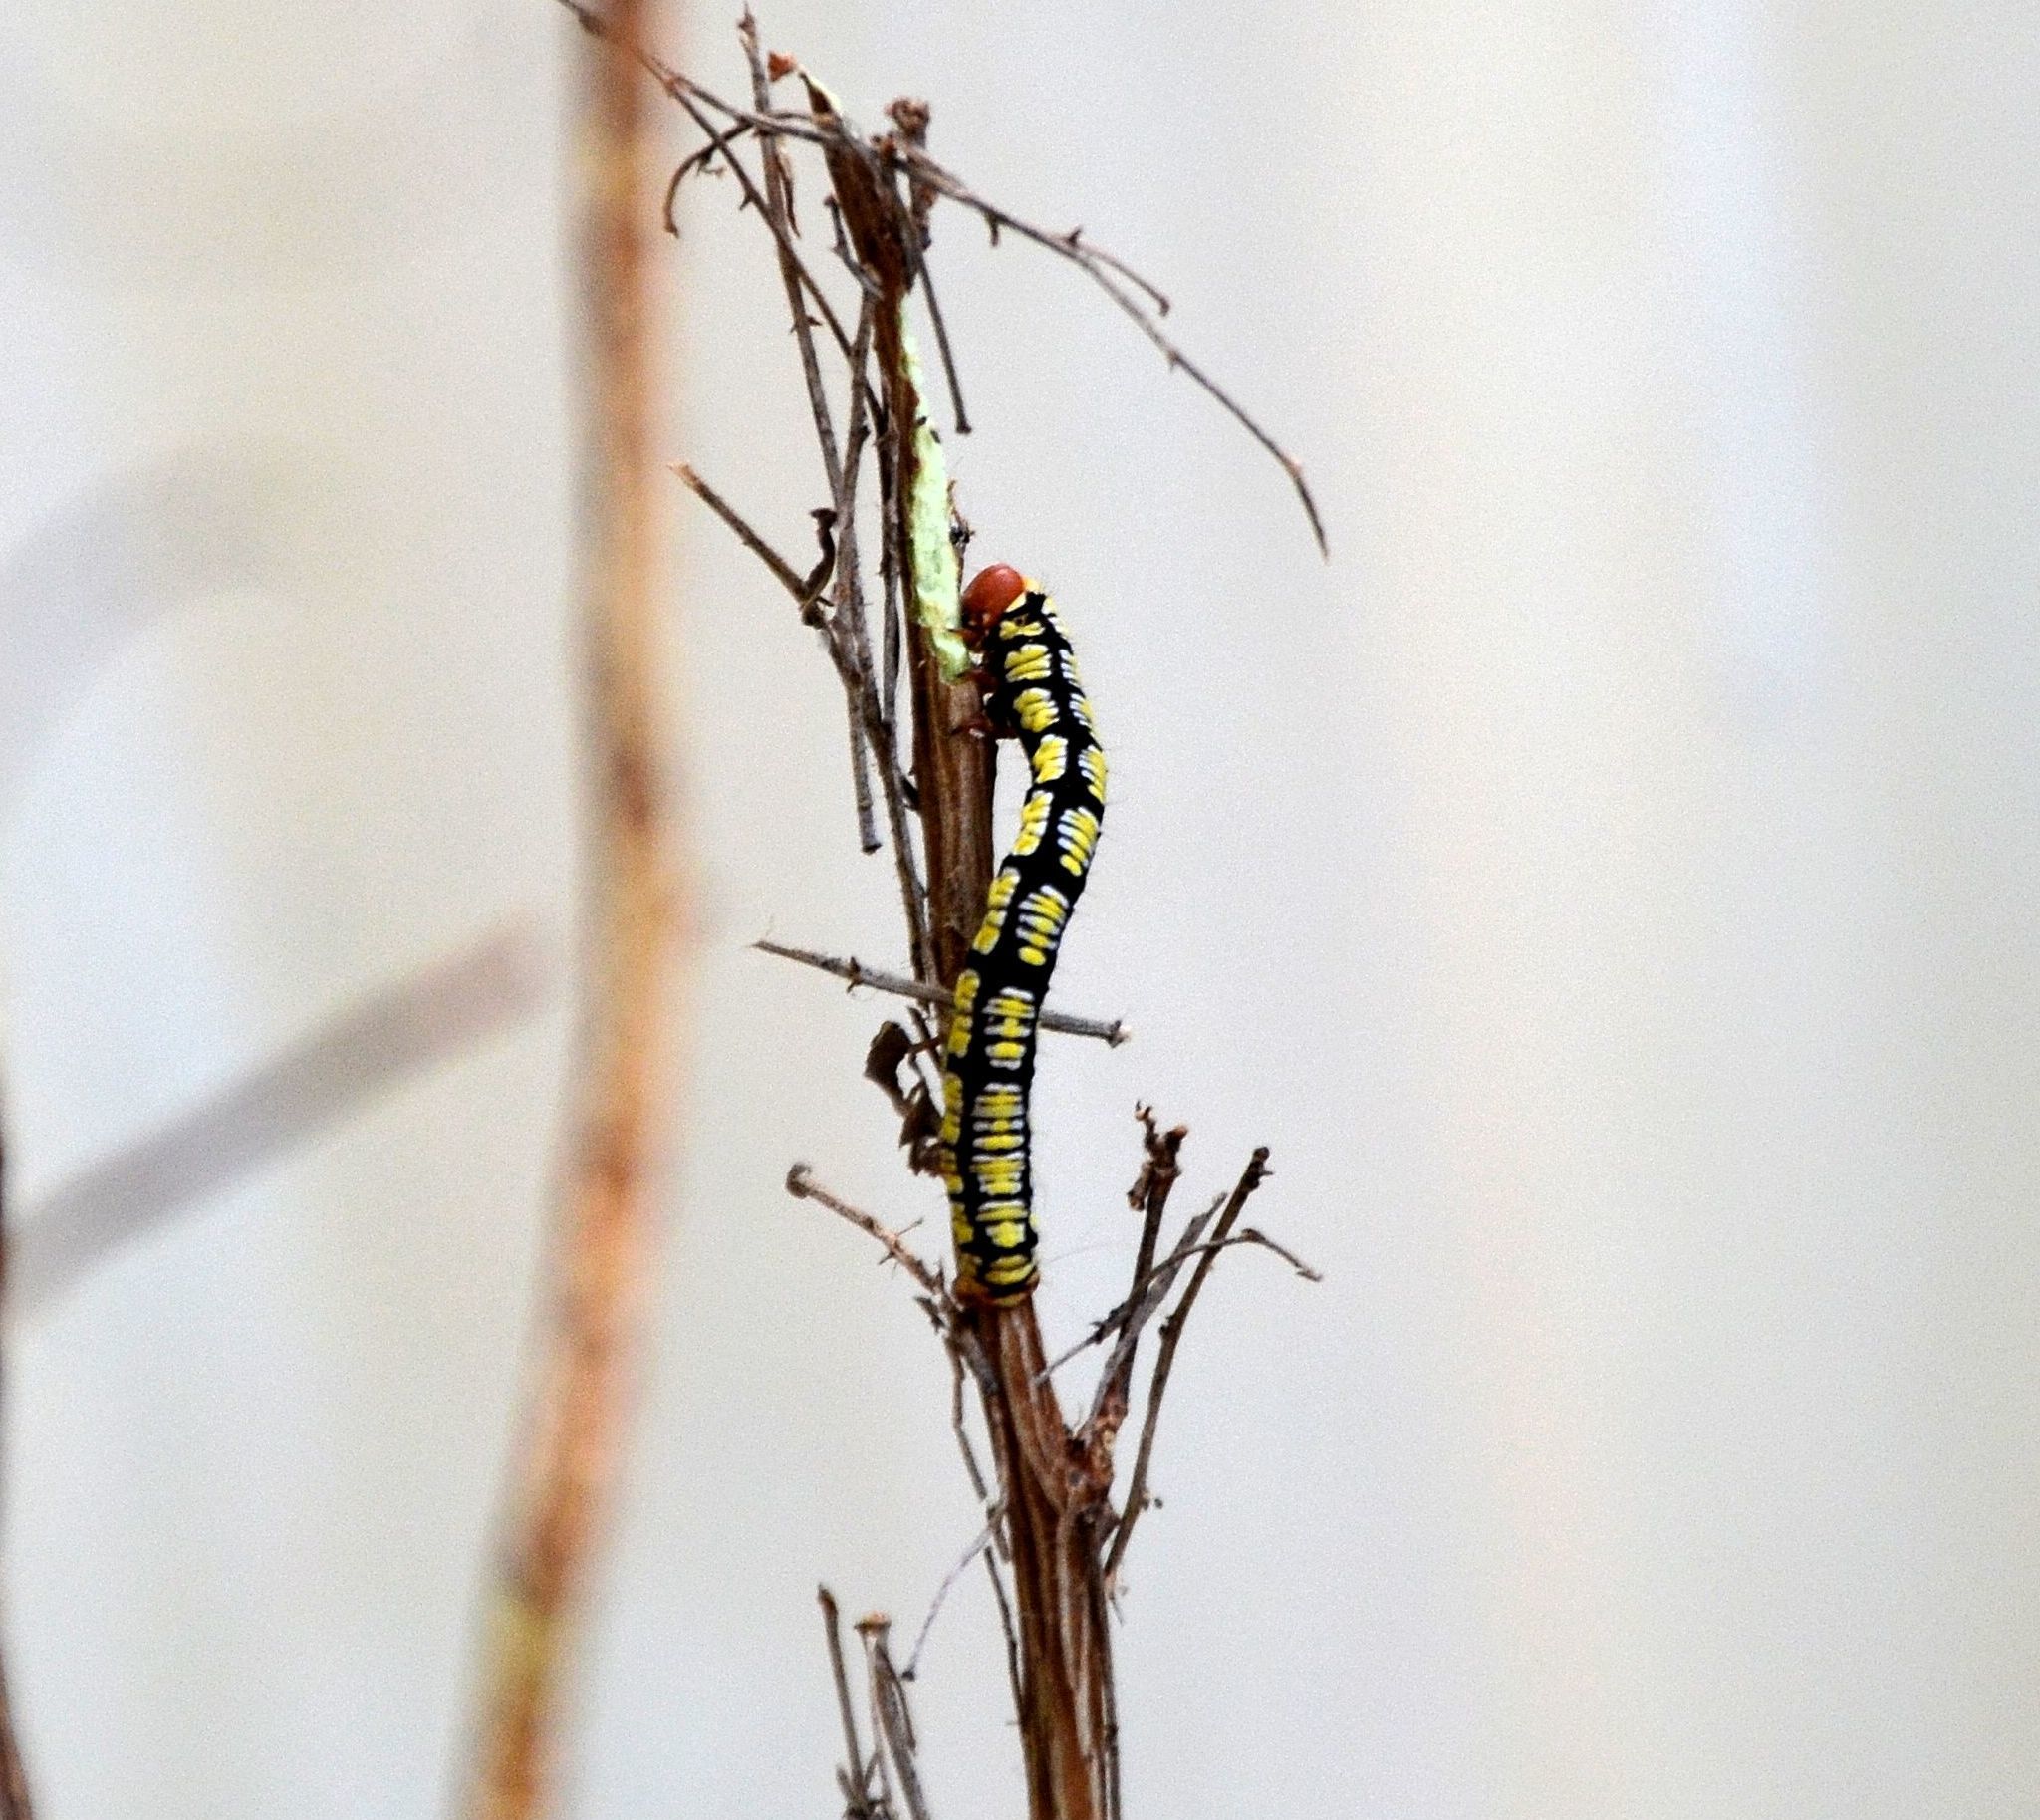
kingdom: Animalia
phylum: Arthropoda
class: Insecta
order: Lepidoptera
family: Geometridae
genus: Melanchroia
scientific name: Melanchroia chephise
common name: White-tipped black
